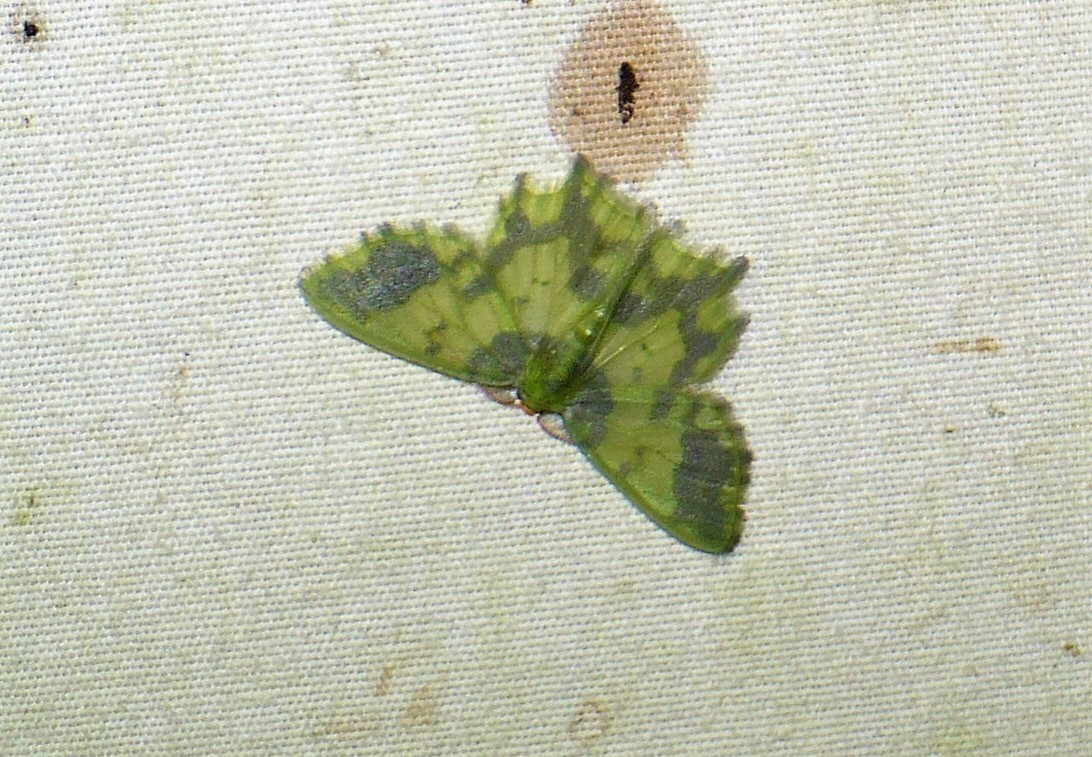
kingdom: Animalia
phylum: Arthropoda
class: Insecta
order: Lepidoptera
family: Geometridae
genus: Cathydata
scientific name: Cathydata batina
